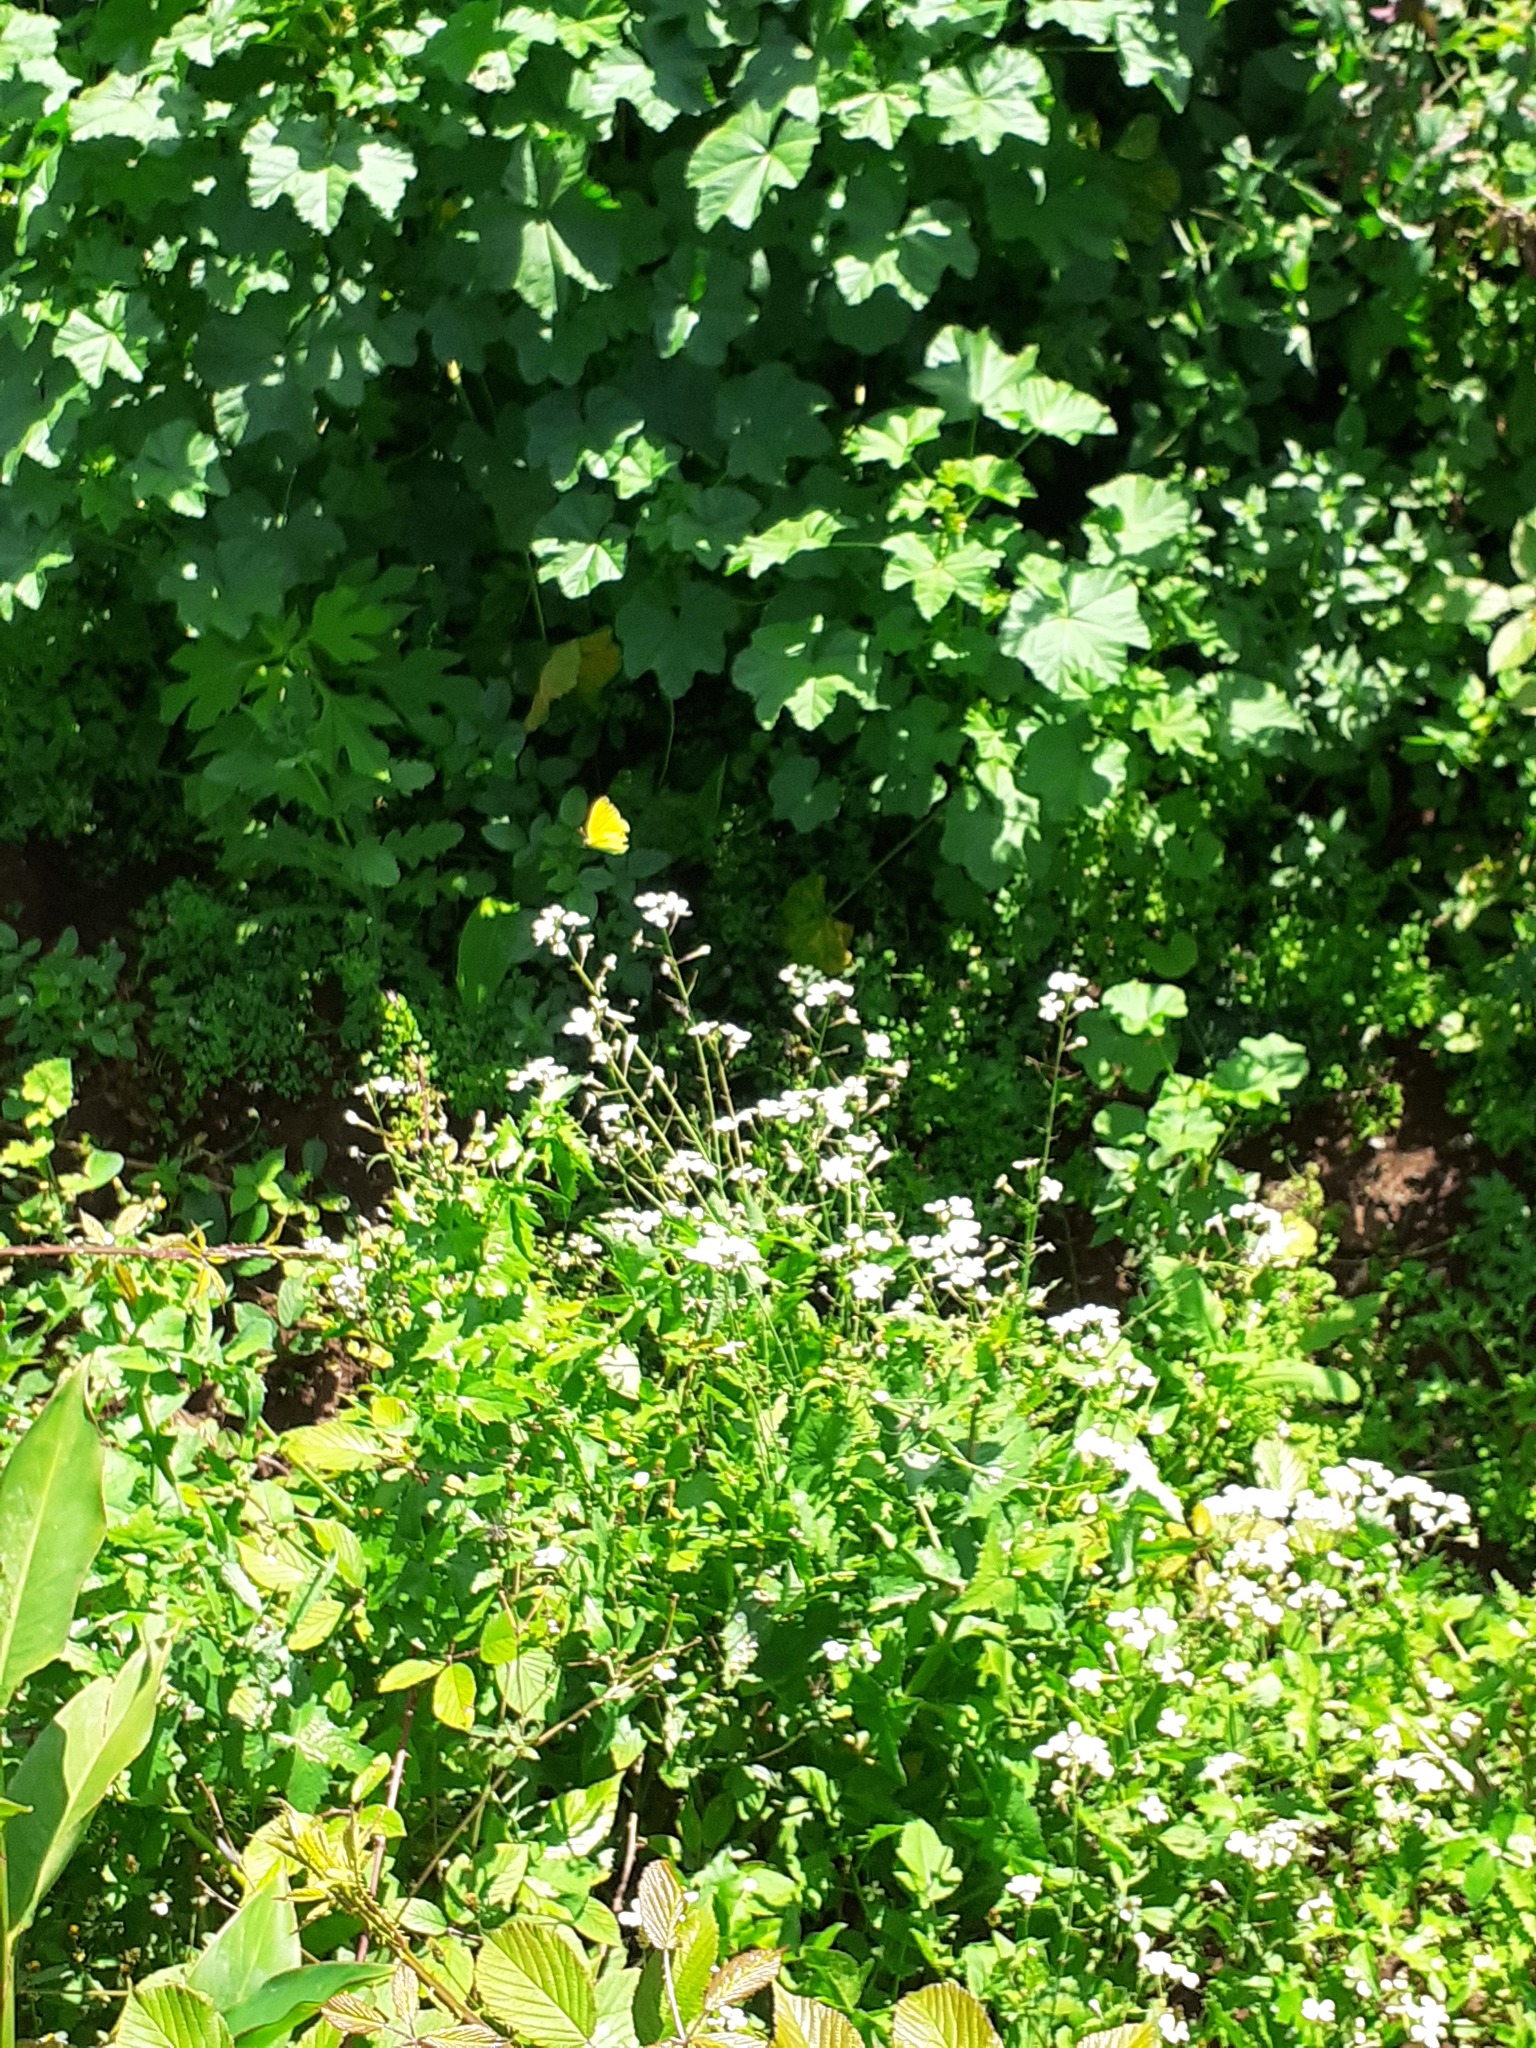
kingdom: Animalia
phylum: Arthropoda
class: Insecta
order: Lepidoptera
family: Pieridae
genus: Gonepteryx
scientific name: Gonepteryx cleobule
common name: Canary brimstone
